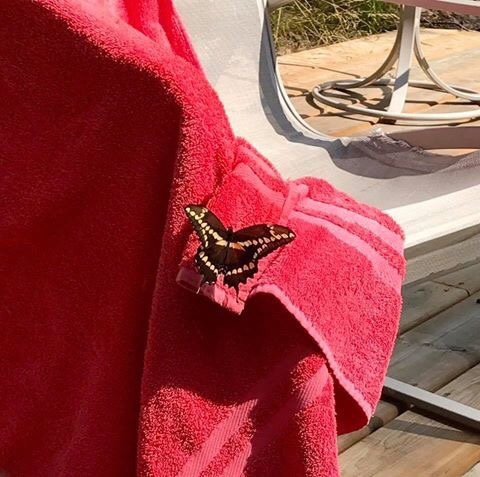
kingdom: Animalia
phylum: Arthropoda
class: Insecta
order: Lepidoptera
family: Papilionidae
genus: Papilio
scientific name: Papilio cresphontes
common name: Giant swallowtail
